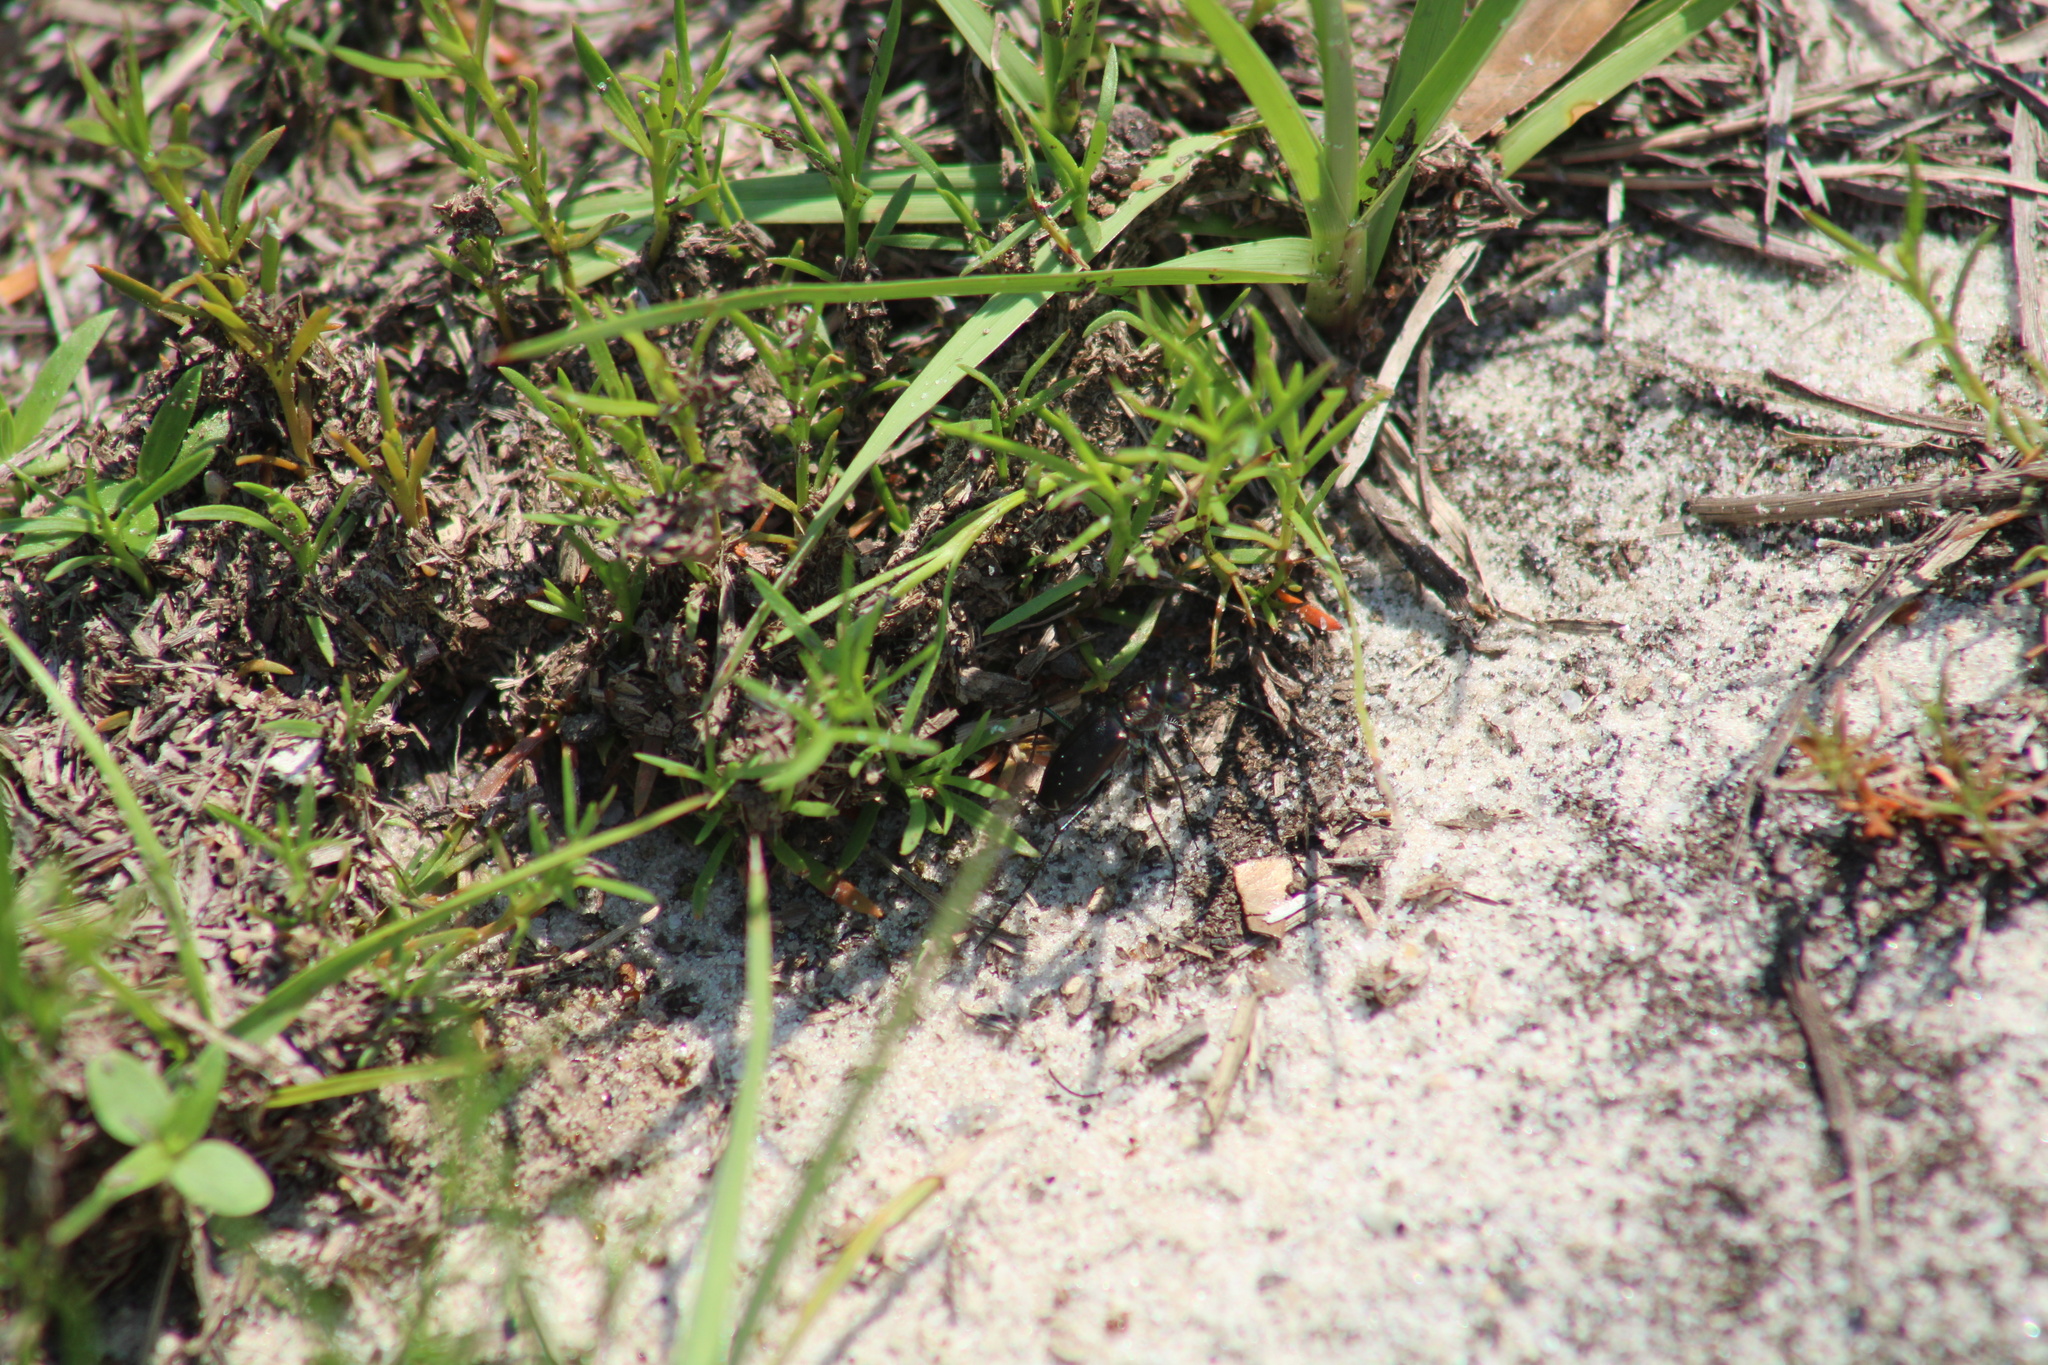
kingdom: Animalia
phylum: Arthropoda
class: Insecta
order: Coleoptera
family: Carabidae
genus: Cicindela
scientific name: Cicindela punctulata
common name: Punctured tiger beetle
